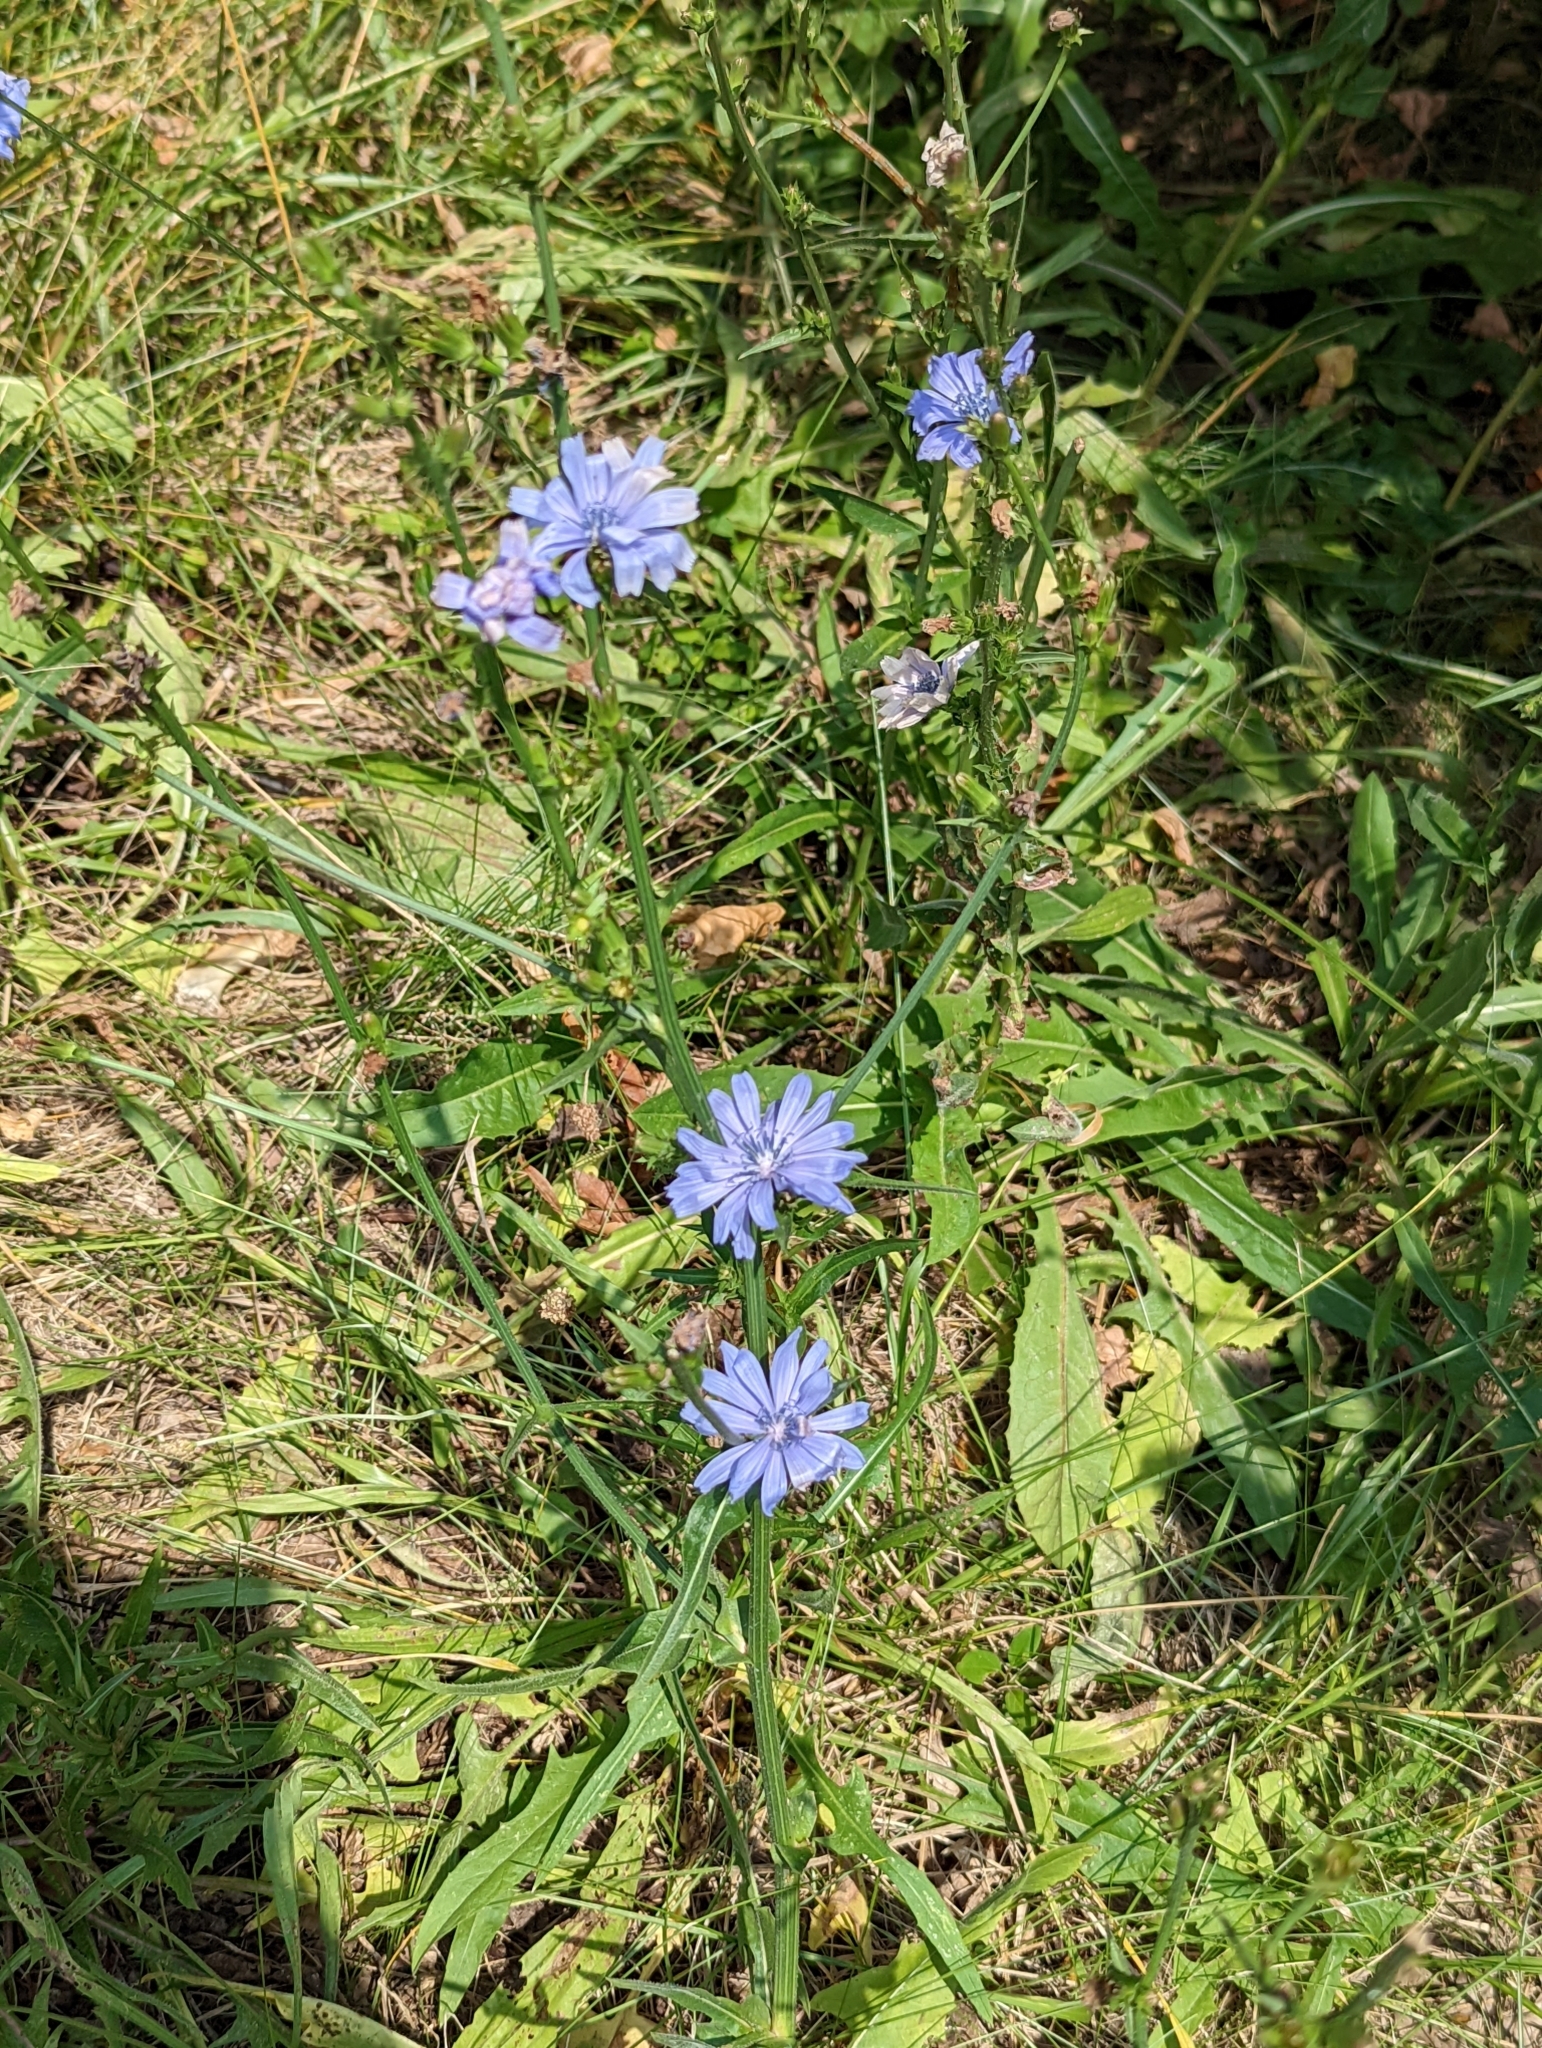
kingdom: Plantae
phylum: Tracheophyta
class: Magnoliopsida
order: Asterales
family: Asteraceae
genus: Cichorium
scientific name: Cichorium intybus
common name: Chicory
